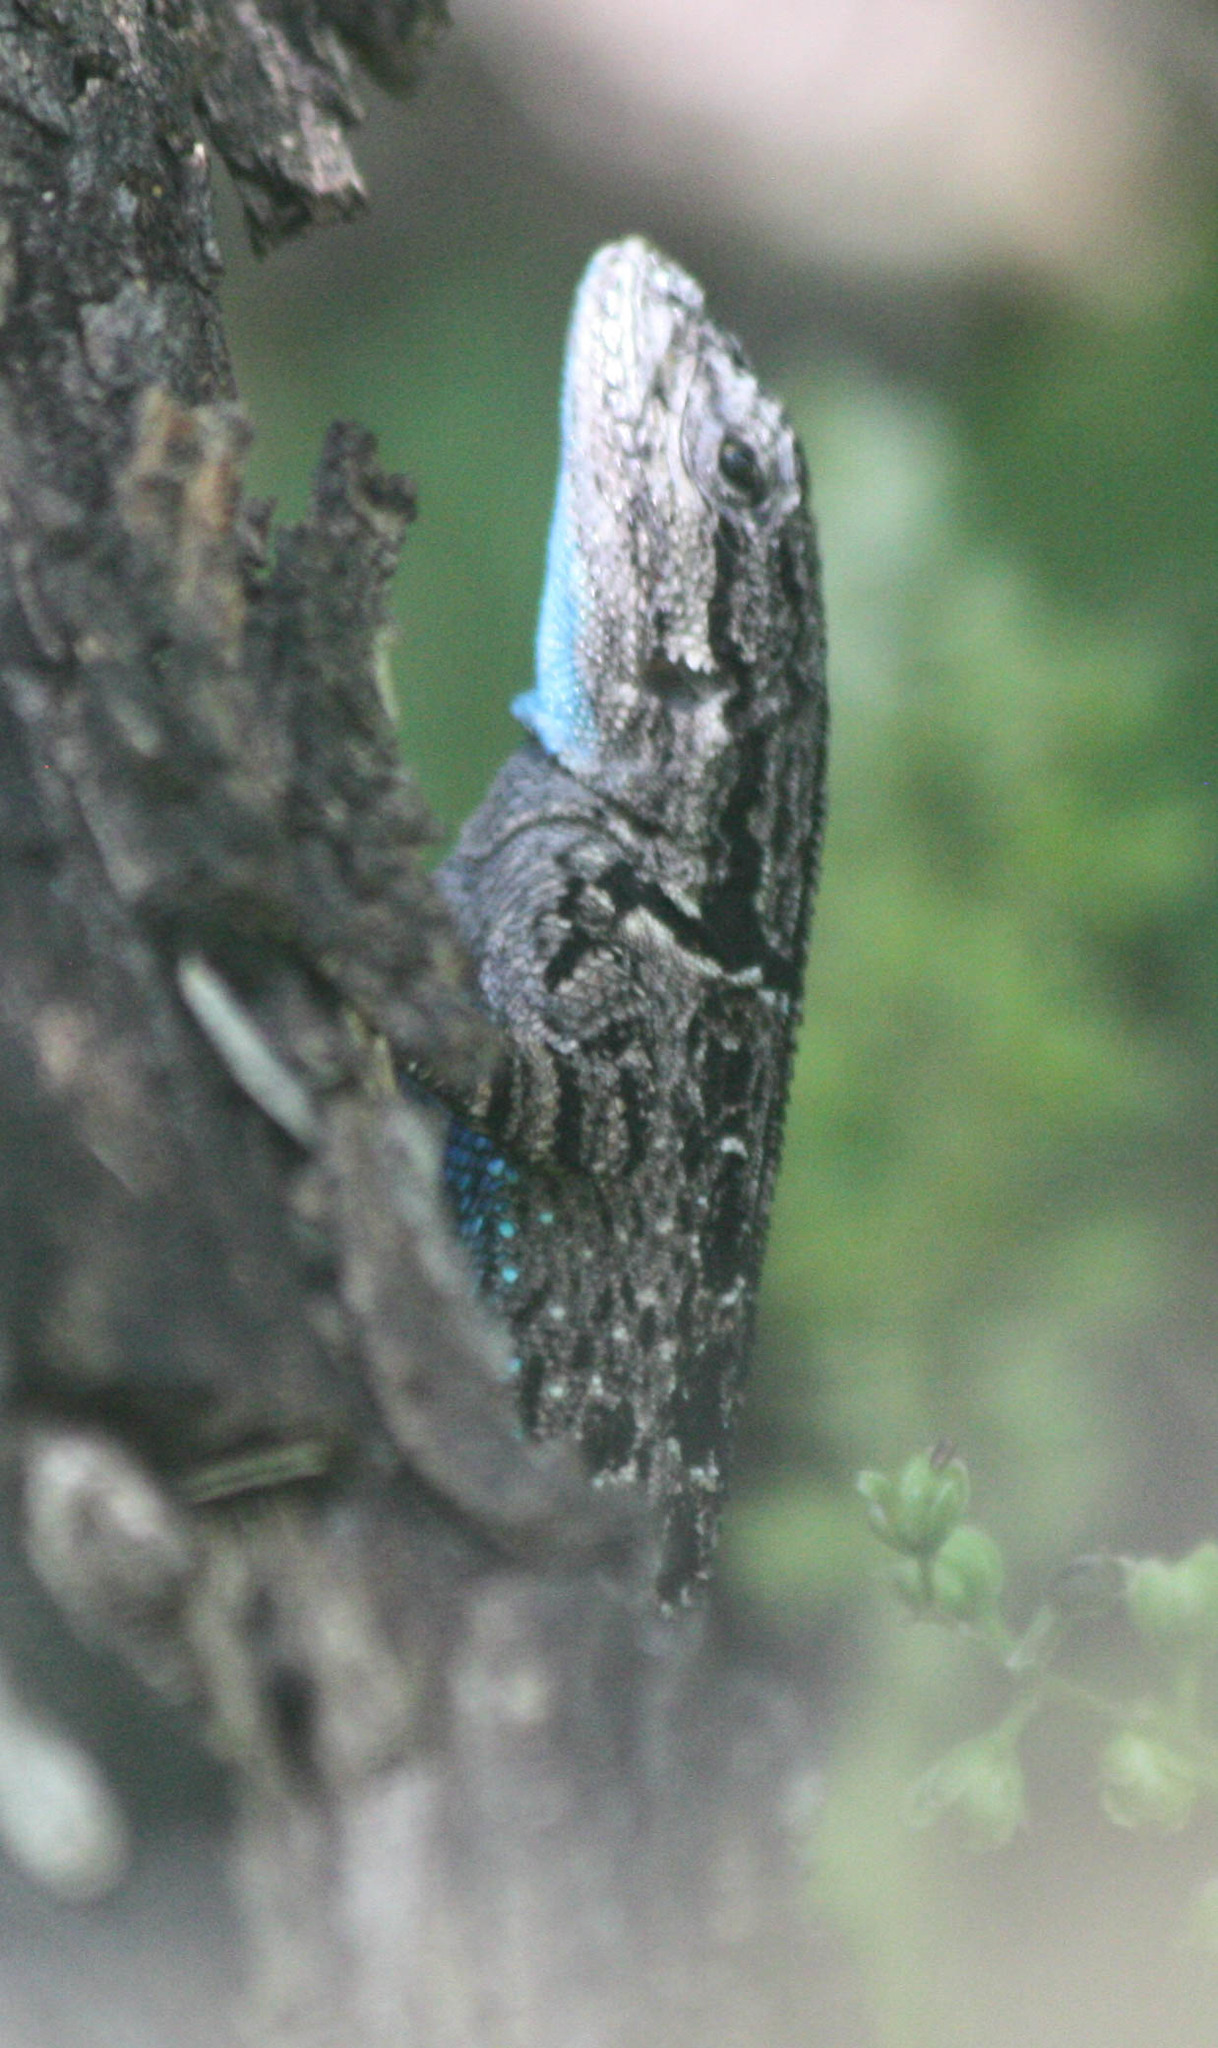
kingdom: Animalia
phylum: Chordata
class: Squamata
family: Phrynosomatidae
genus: Urosaurus
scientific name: Urosaurus ornatus
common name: Ornate tree lizard
